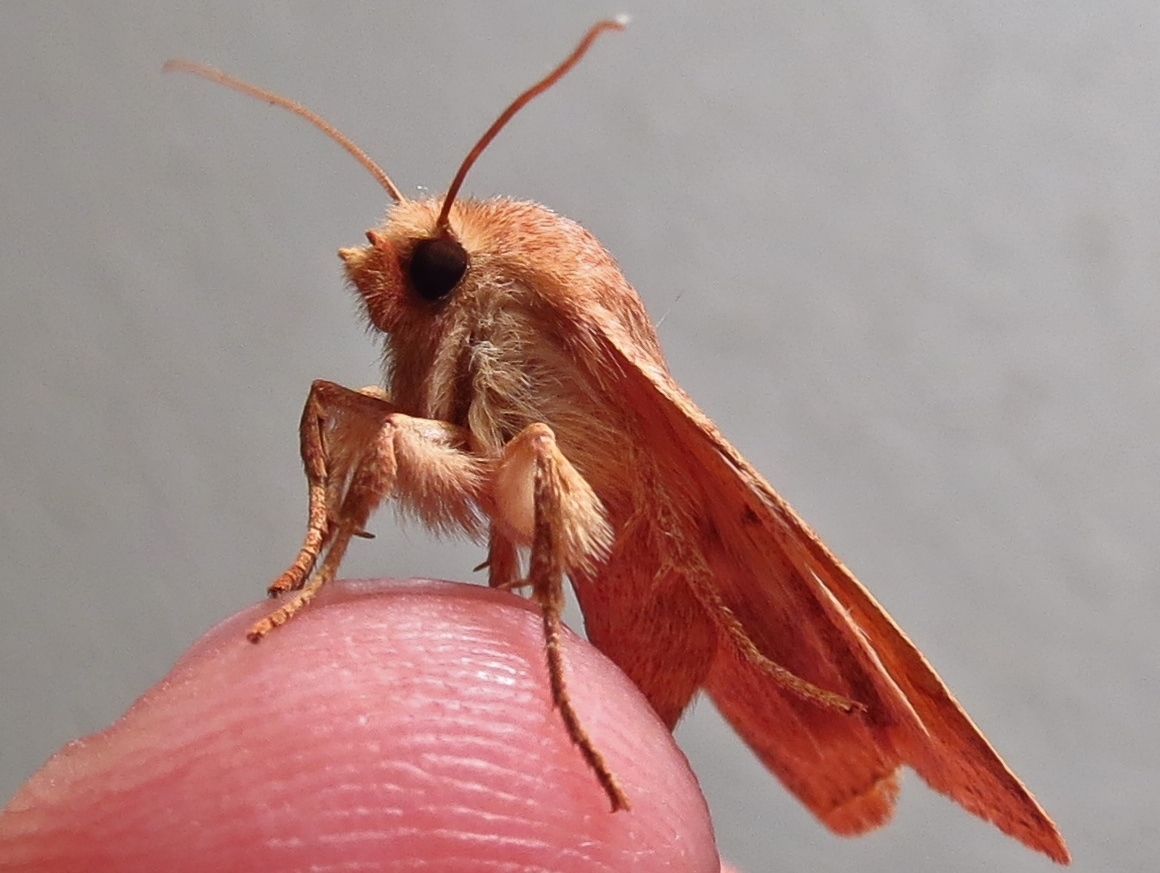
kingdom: Animalia
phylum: Arthropoda
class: Insecta
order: Lepidoptera
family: Noctuidae
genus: Agrochola
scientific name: Agrochola bicolorago
